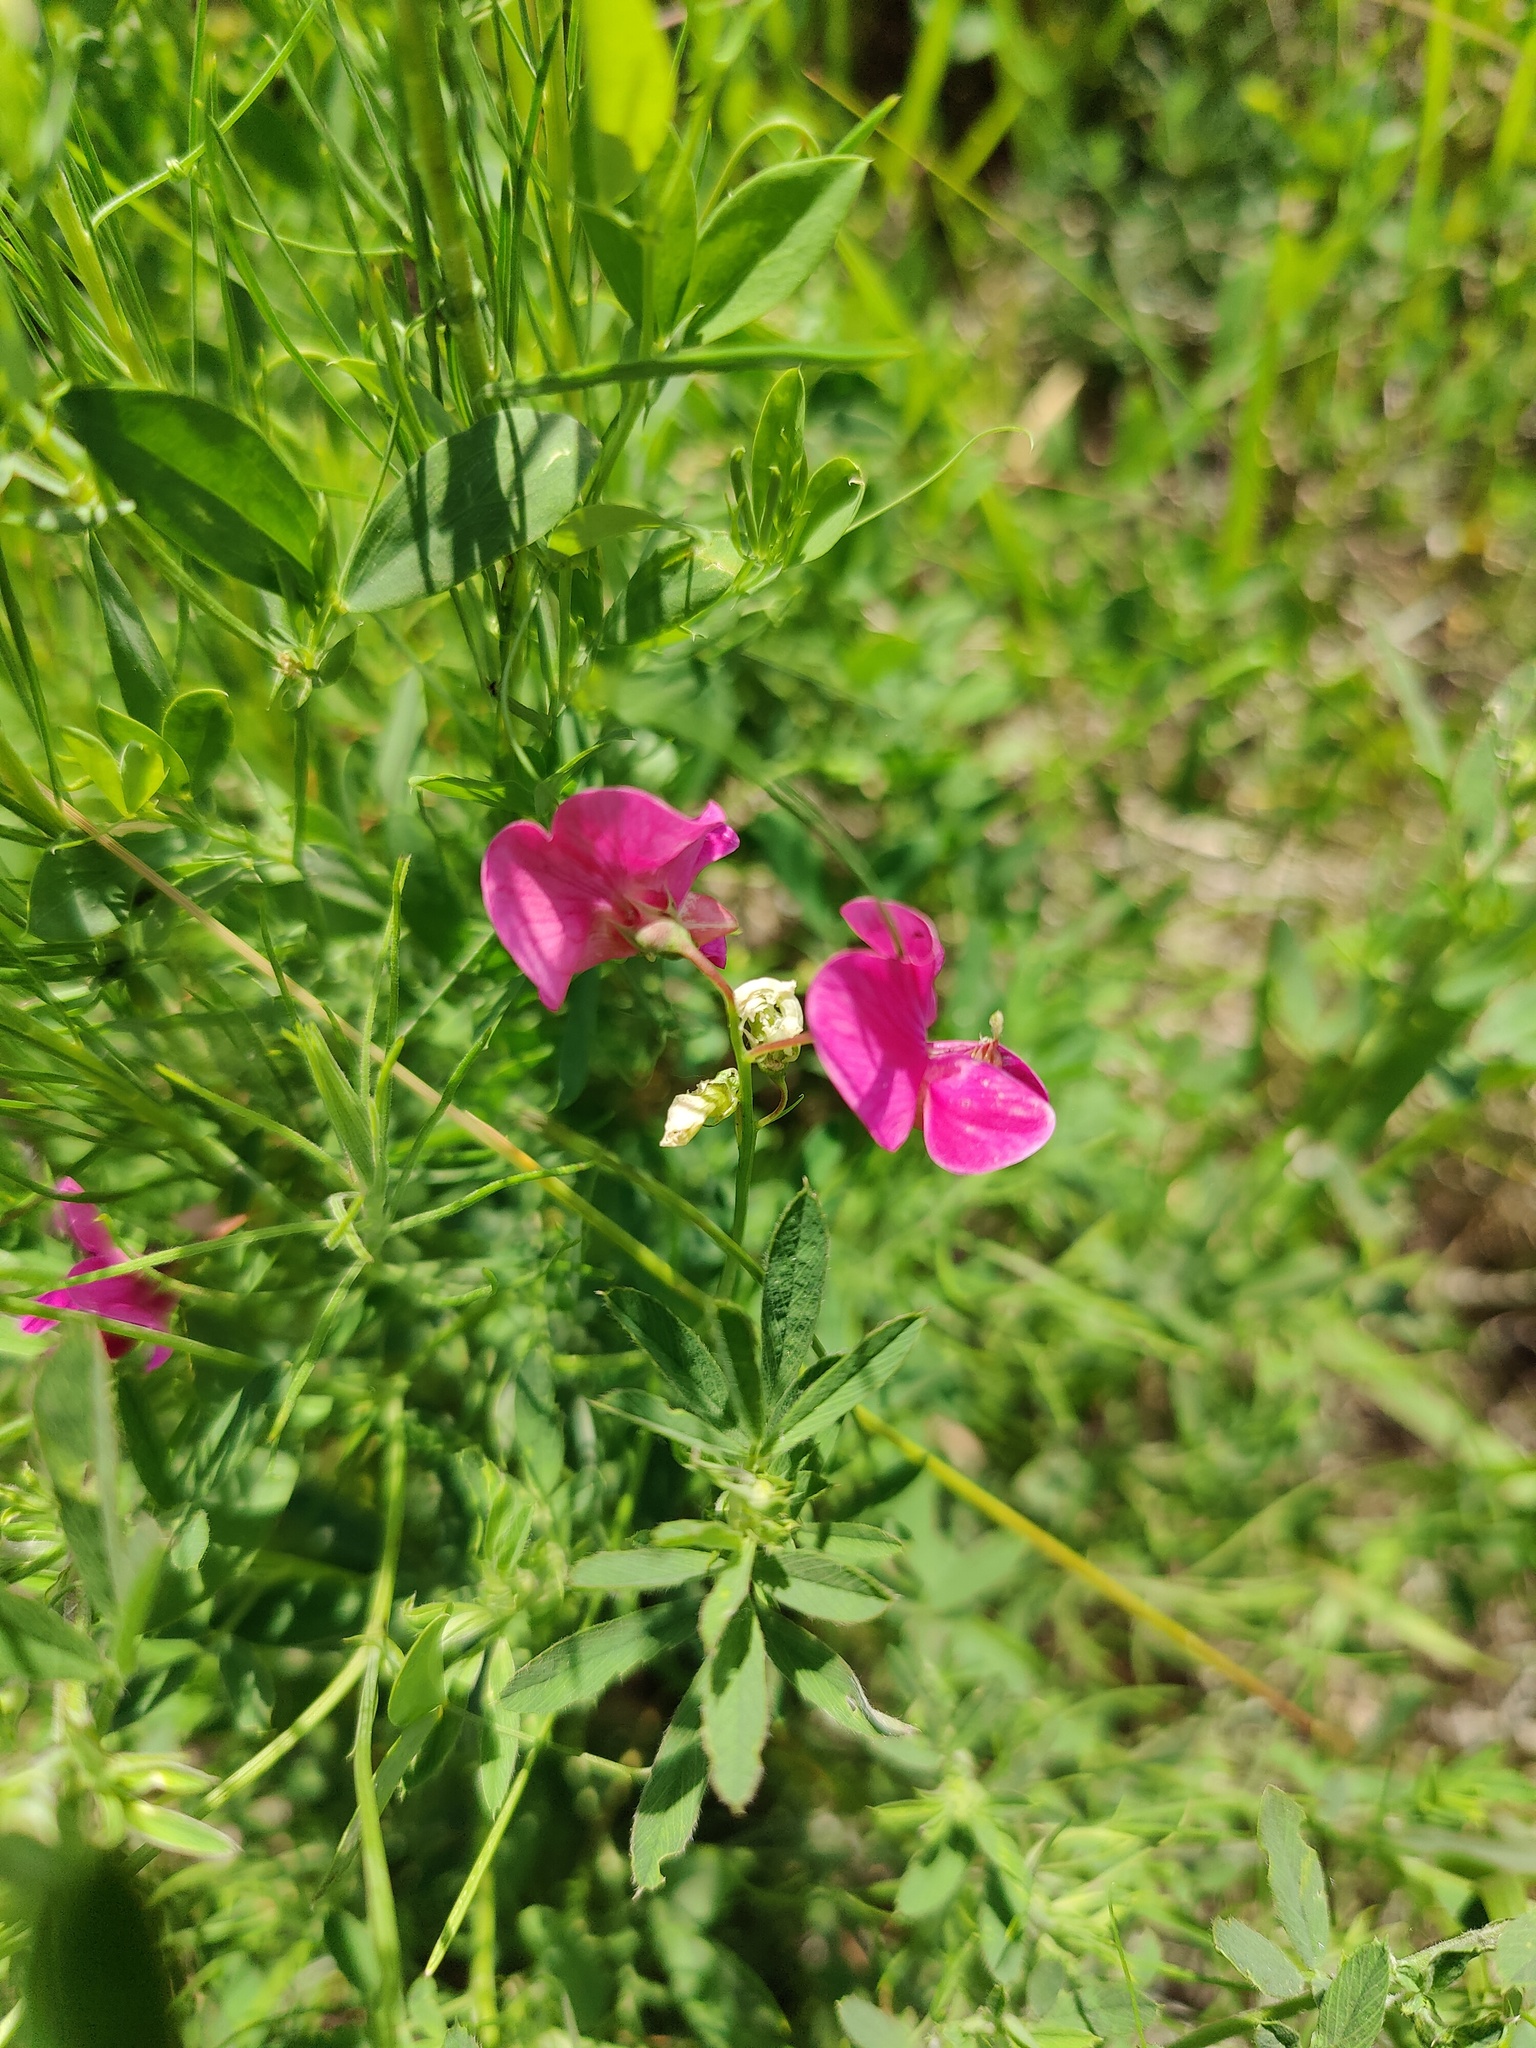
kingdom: Plantae
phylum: Tracheophyta
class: Magnoliopsida
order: Fabales
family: Fabaceae
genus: Lathyrus
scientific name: Lathyrus tuberosus
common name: Tuberous pea
